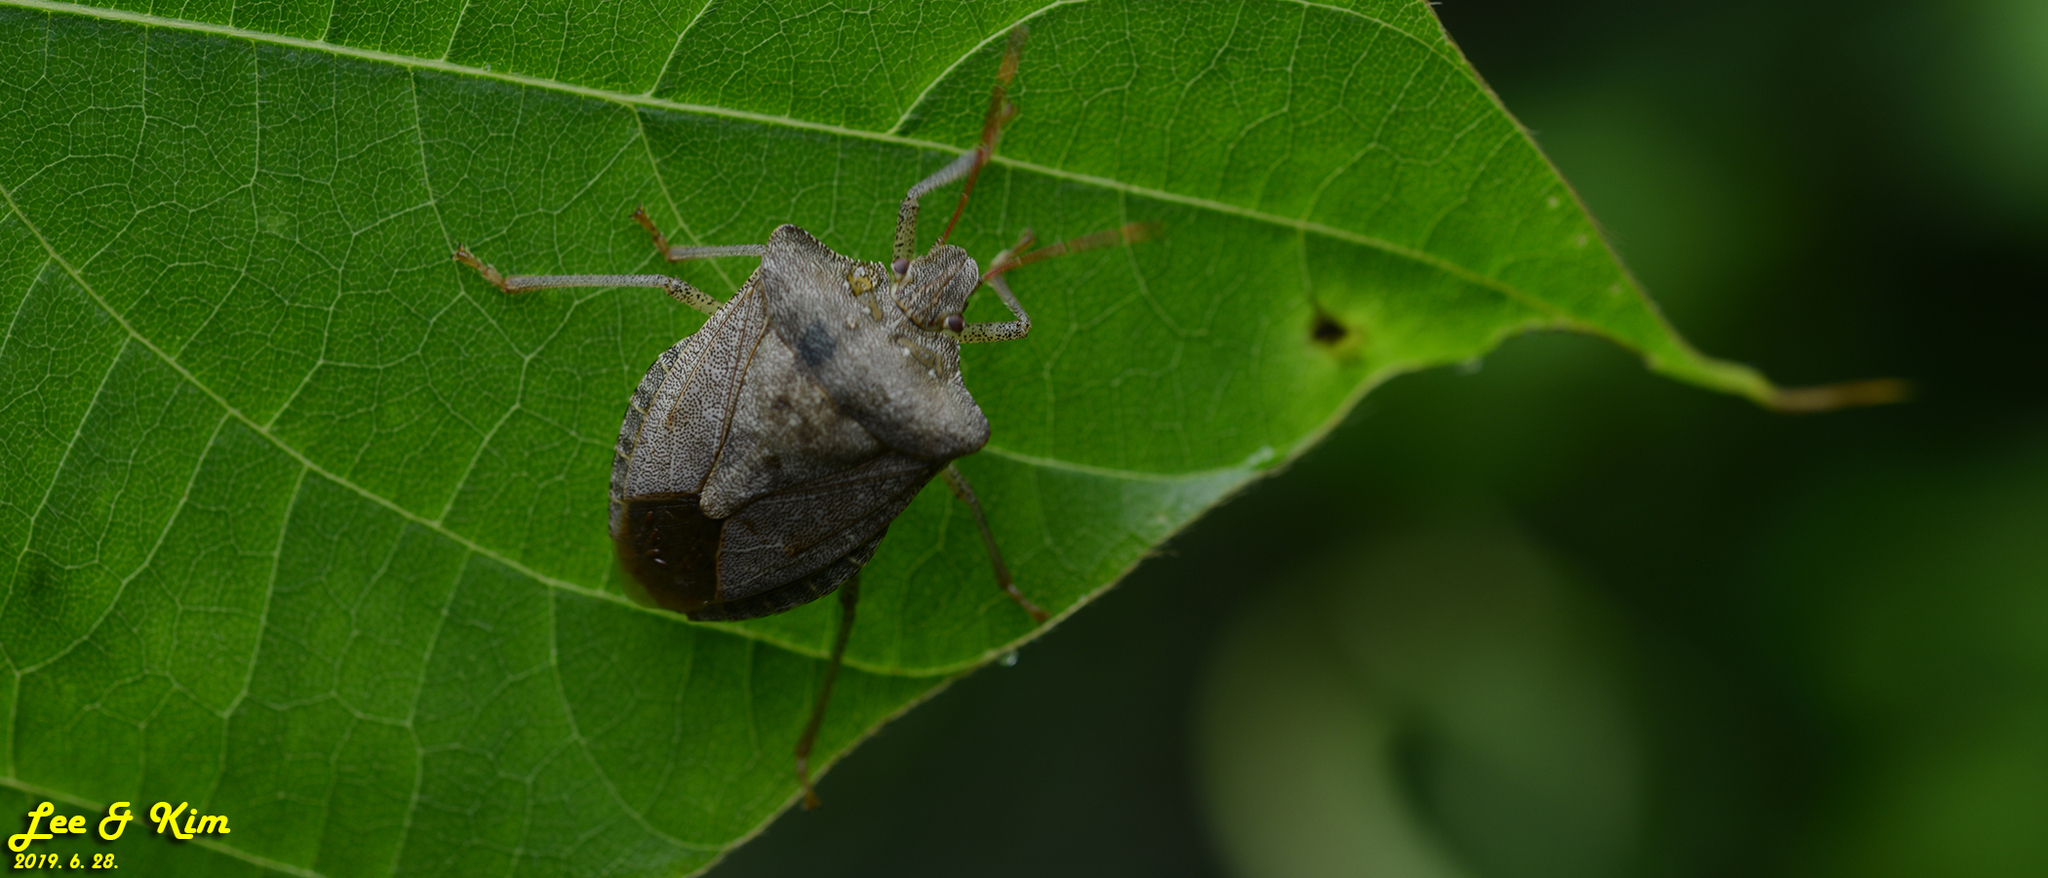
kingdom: Animalia
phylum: Arthropoda
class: Insecta
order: Hemiptera
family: Pentatomidae
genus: Homalogonia
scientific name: Homalogonia obtusa
